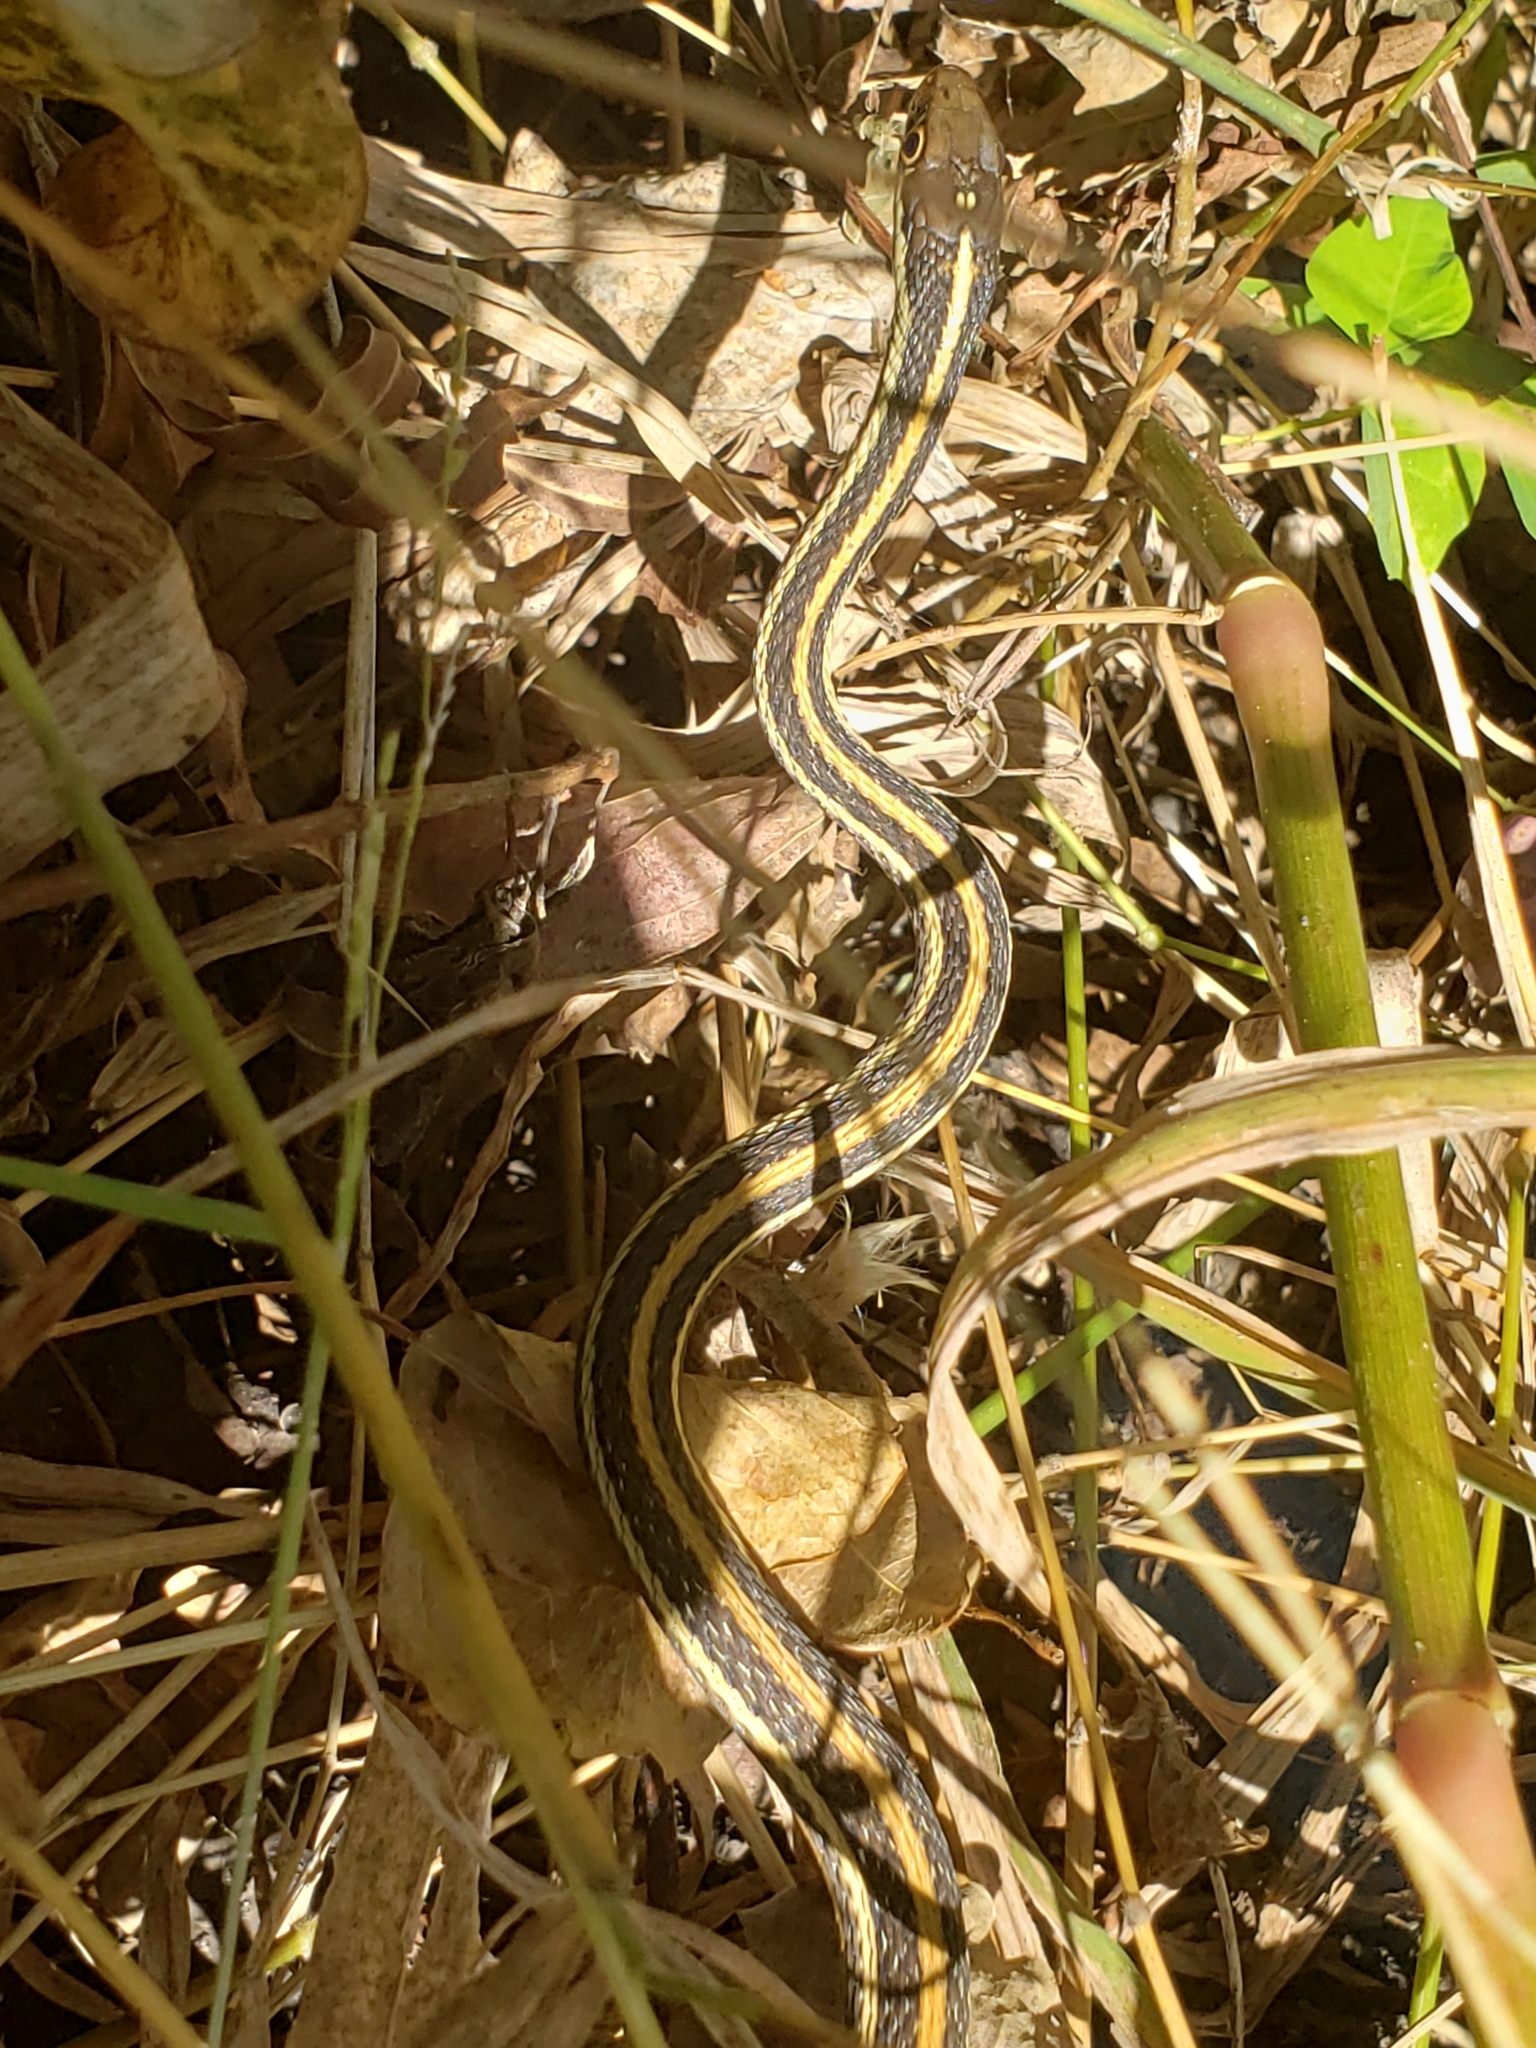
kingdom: Animalia
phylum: Chordata
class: Squamata
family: Colubridae
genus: Thamnophis
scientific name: Thamnophis proximus
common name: Western ribbon snake
